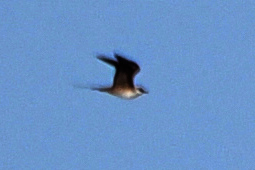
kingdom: Animalia
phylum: Chordata
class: Aves
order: Charadriiformes
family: Stercorariidae
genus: Stercorarius
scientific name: Stercorarius longicaudus
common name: Long-tailed jaeger
